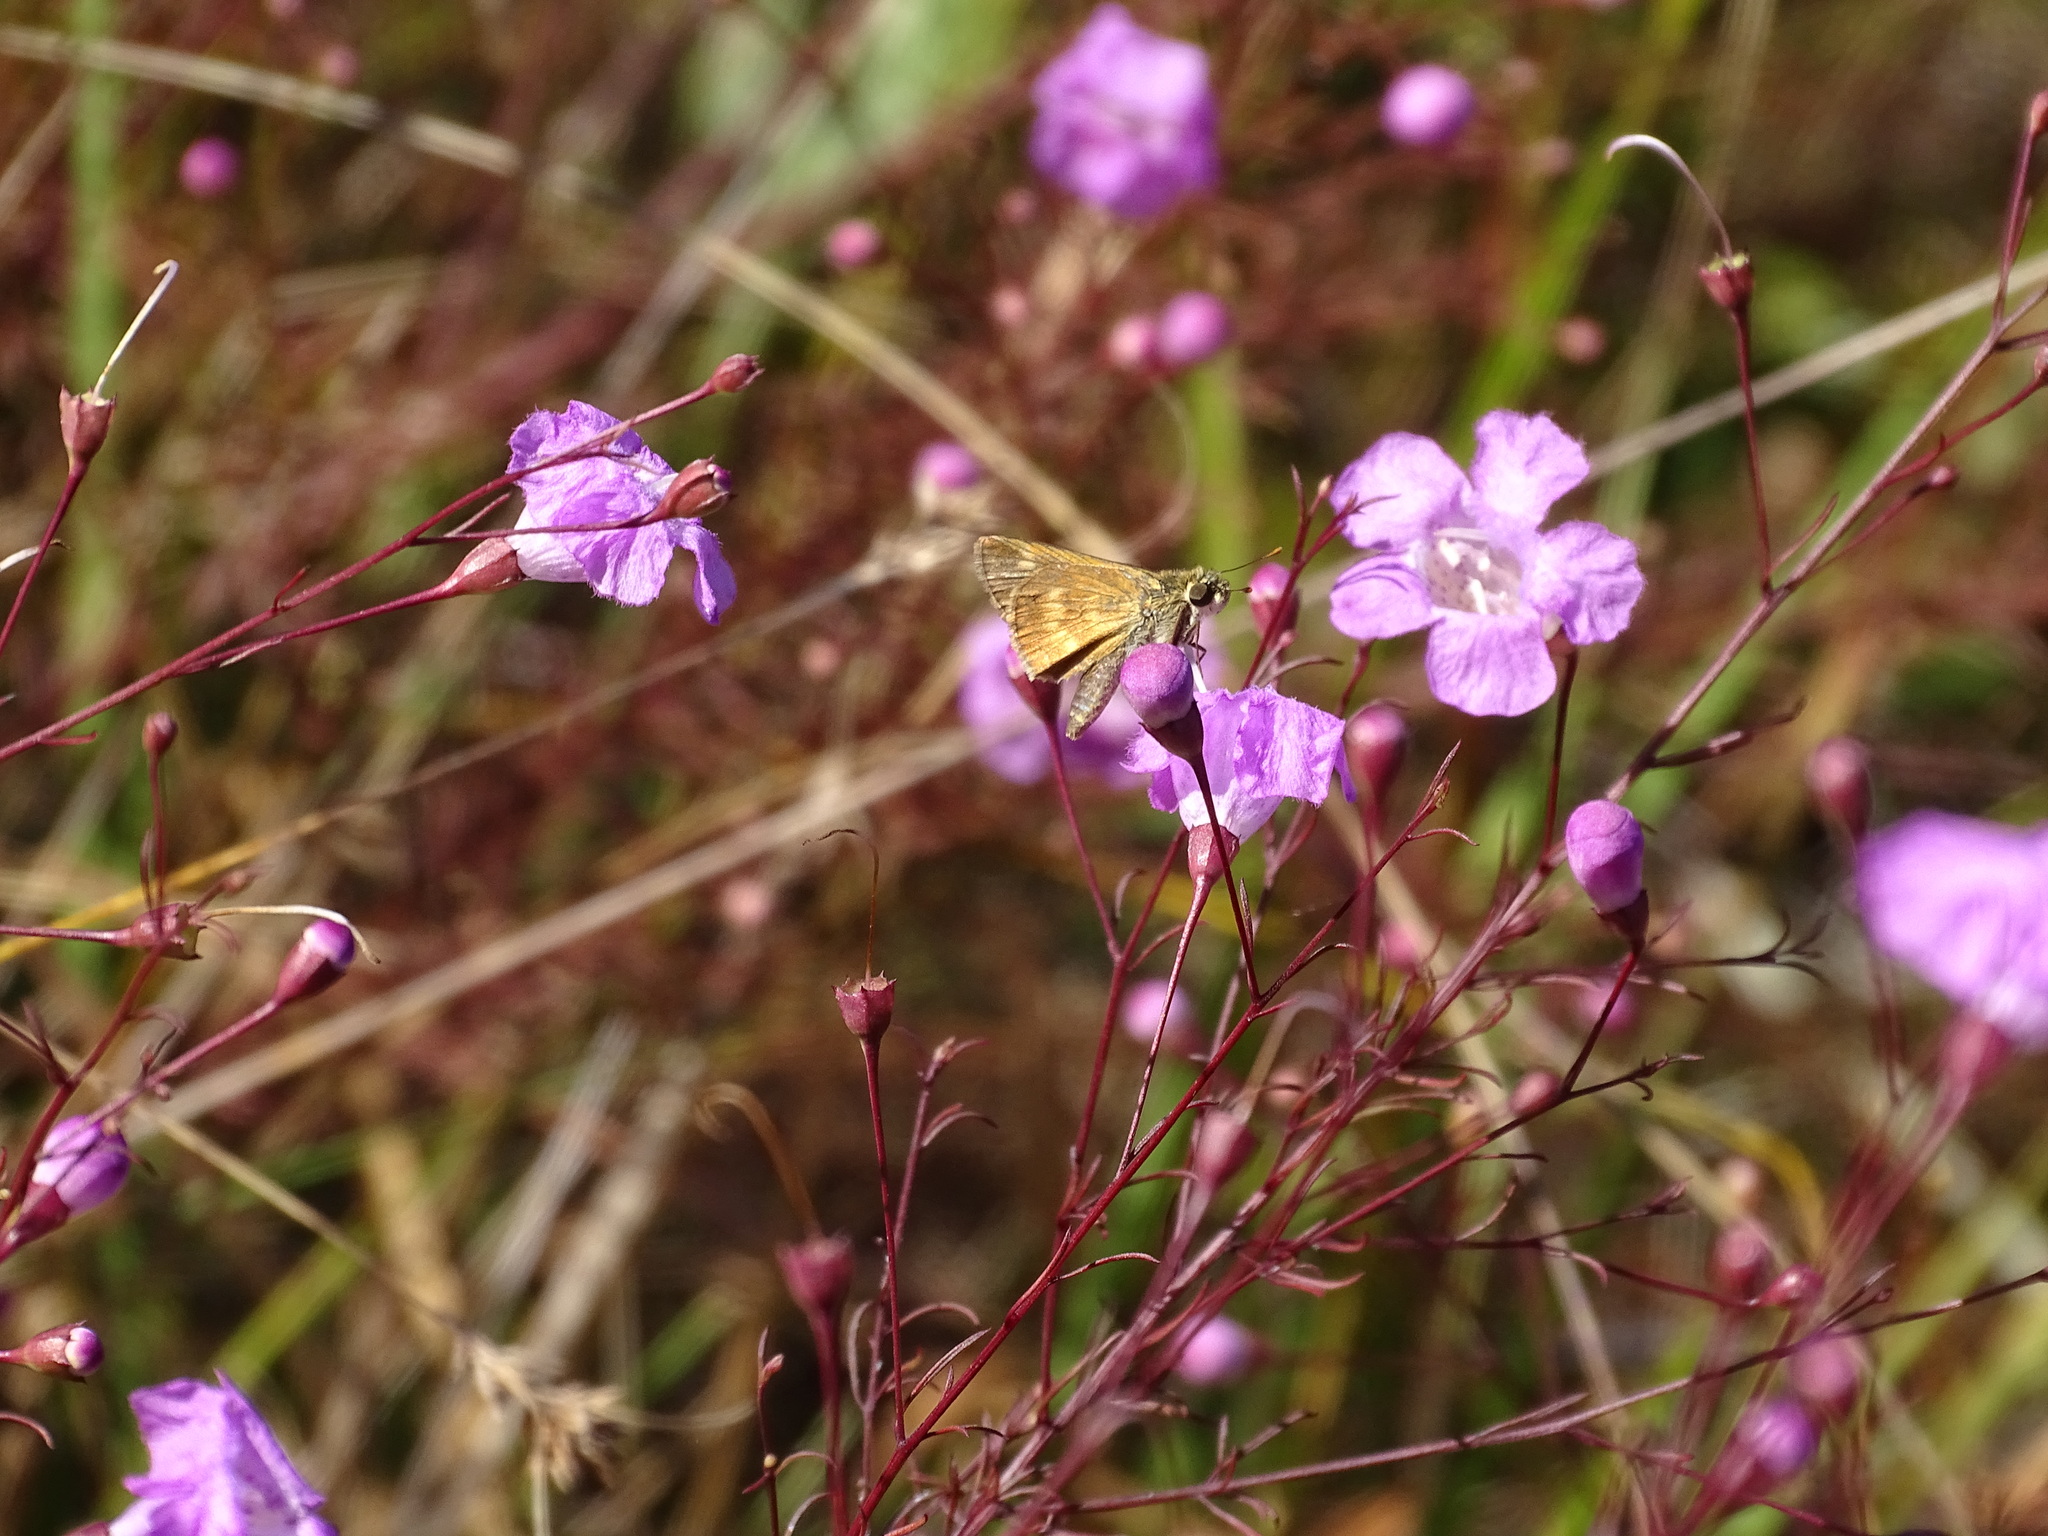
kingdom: Animalia
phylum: Arthropoda
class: Insecta
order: Lepidoptera
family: Hesperiidae
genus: Polites
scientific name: Polites otho
